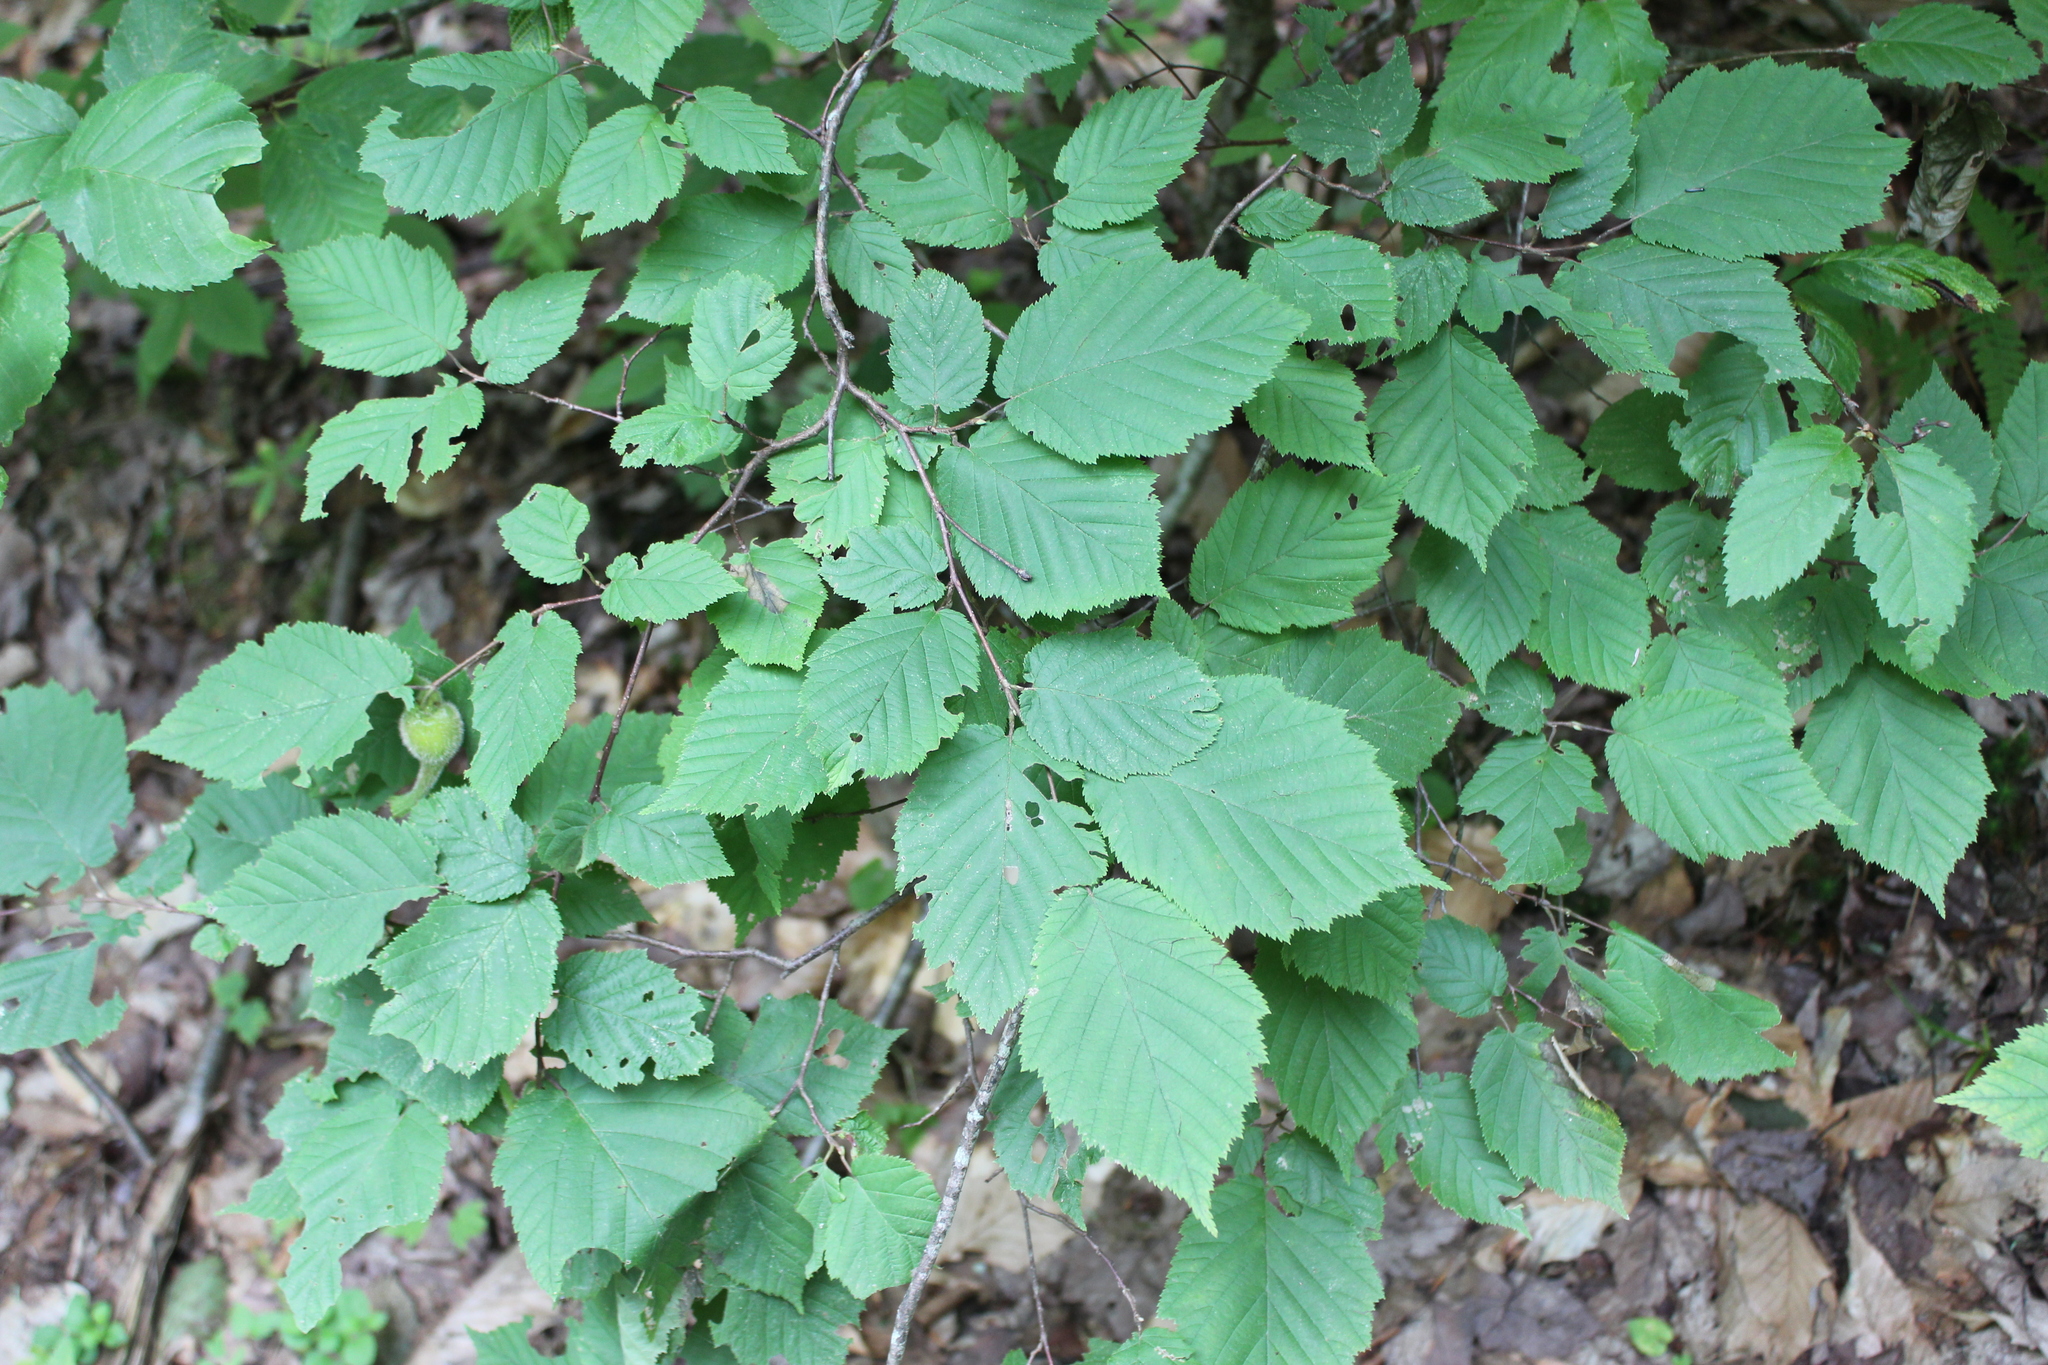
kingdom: Plantae
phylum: Tracheophyta
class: Magnoliopsida
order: Fagales
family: Betulaceae
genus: Corylus
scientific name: Corylus cornuta
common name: Beaked hazel
